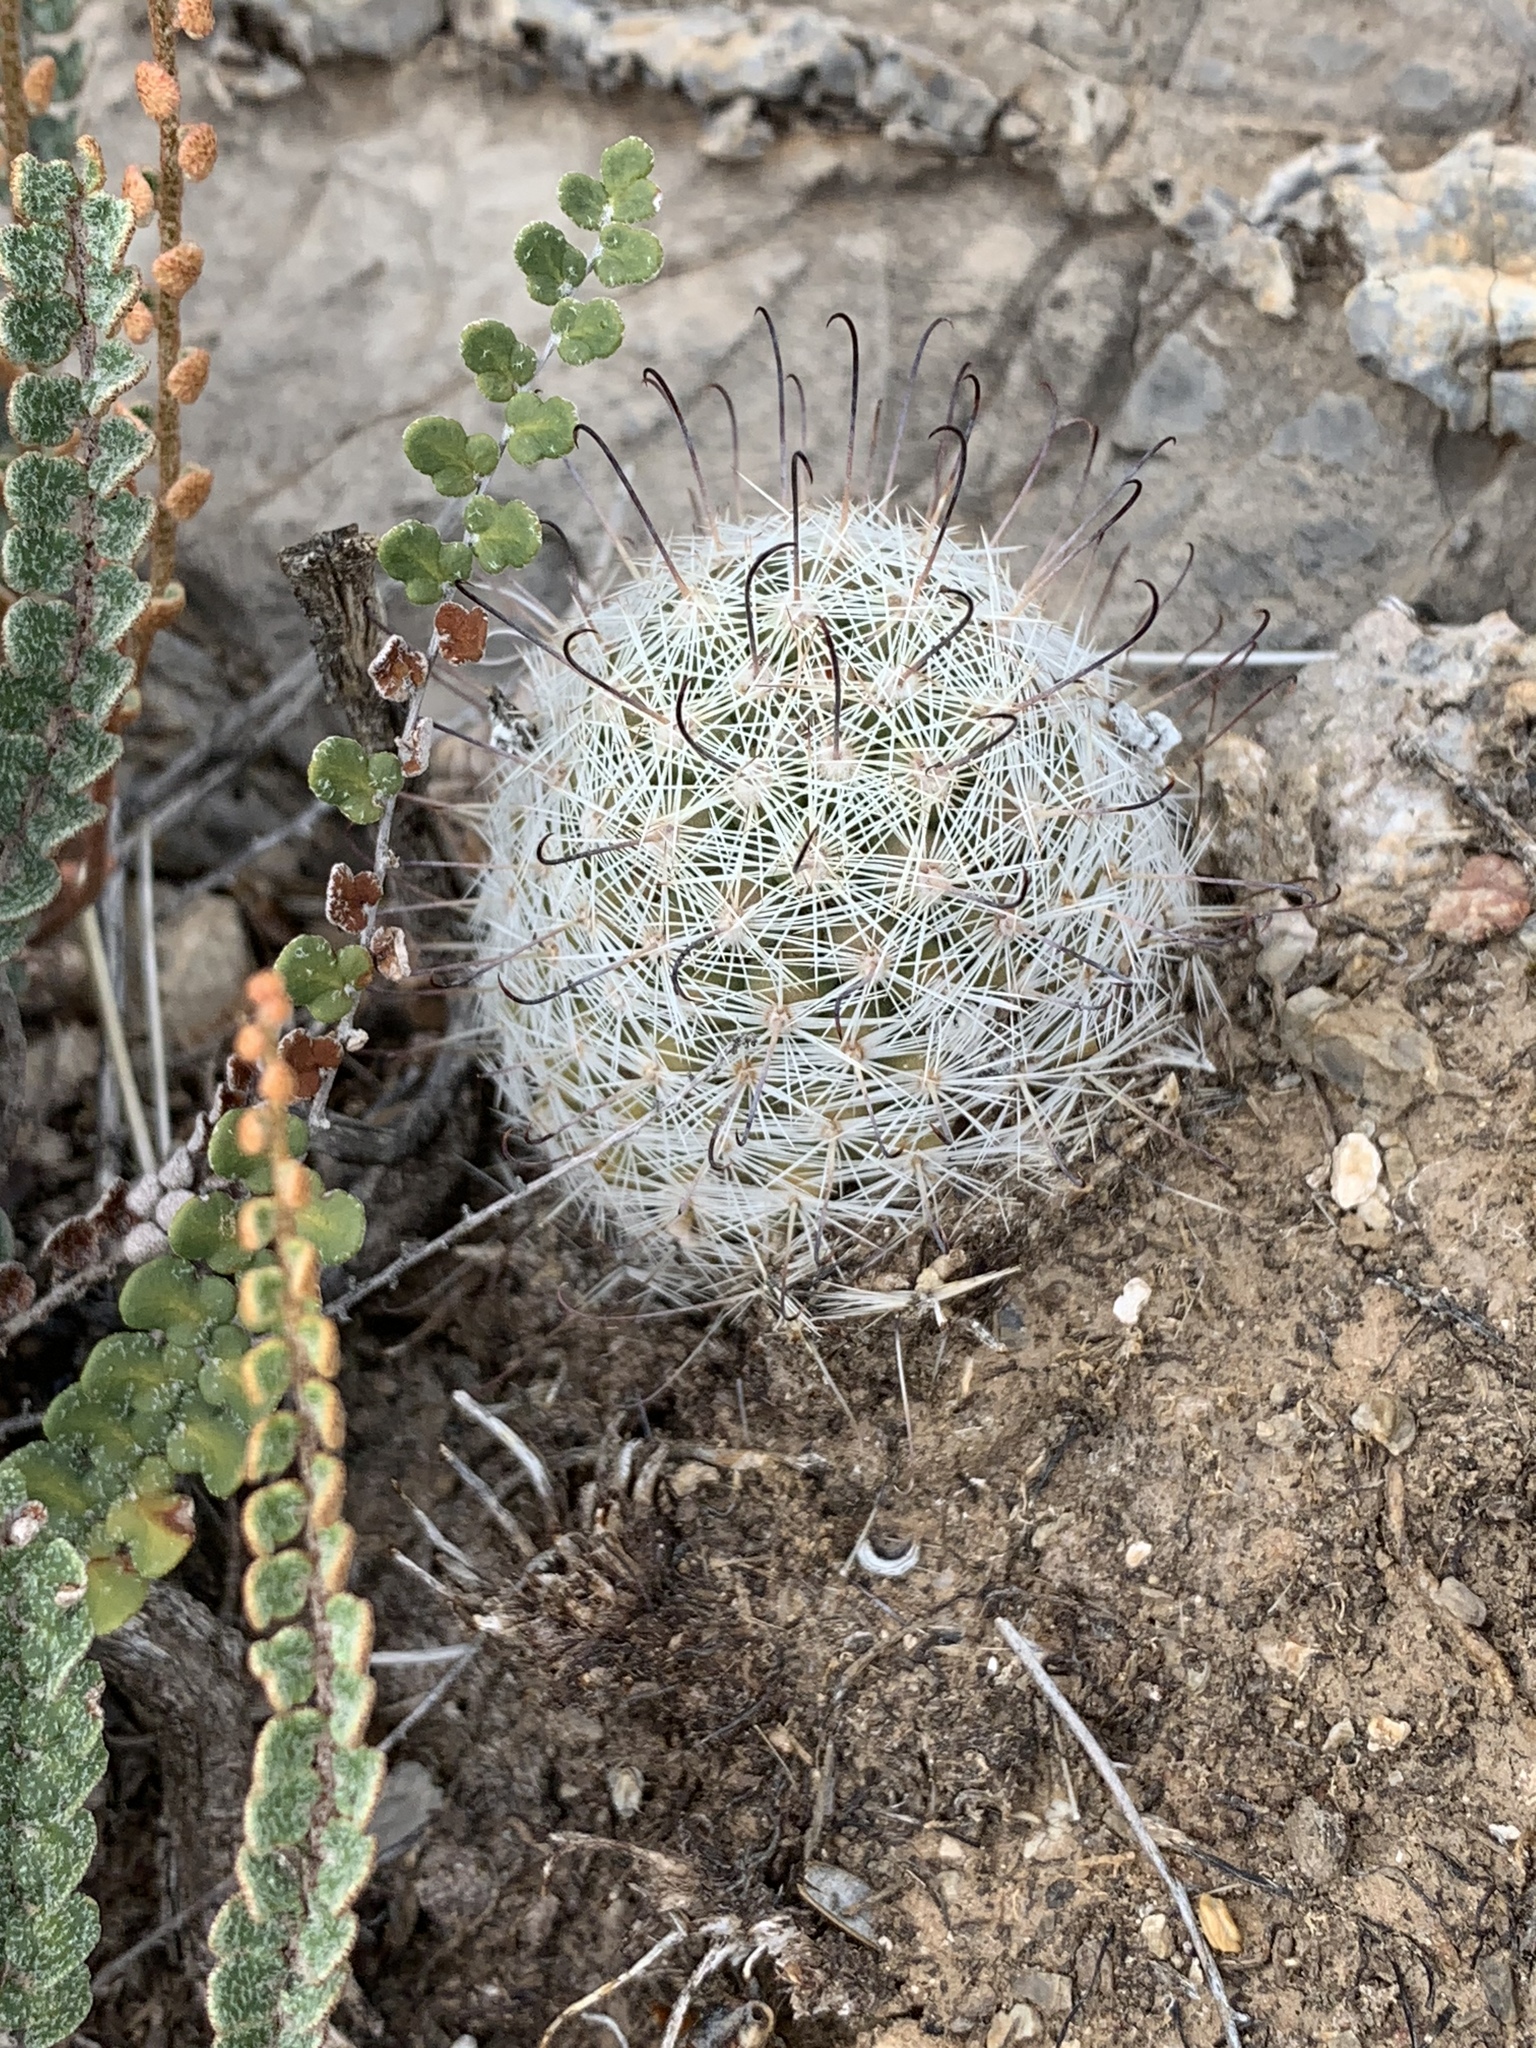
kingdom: Plantae
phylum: Tracheophyta
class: Magnoliopsida
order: Caryophyllales
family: Cactaceae
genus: Cochemiea
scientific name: Cochemiea grahamii
